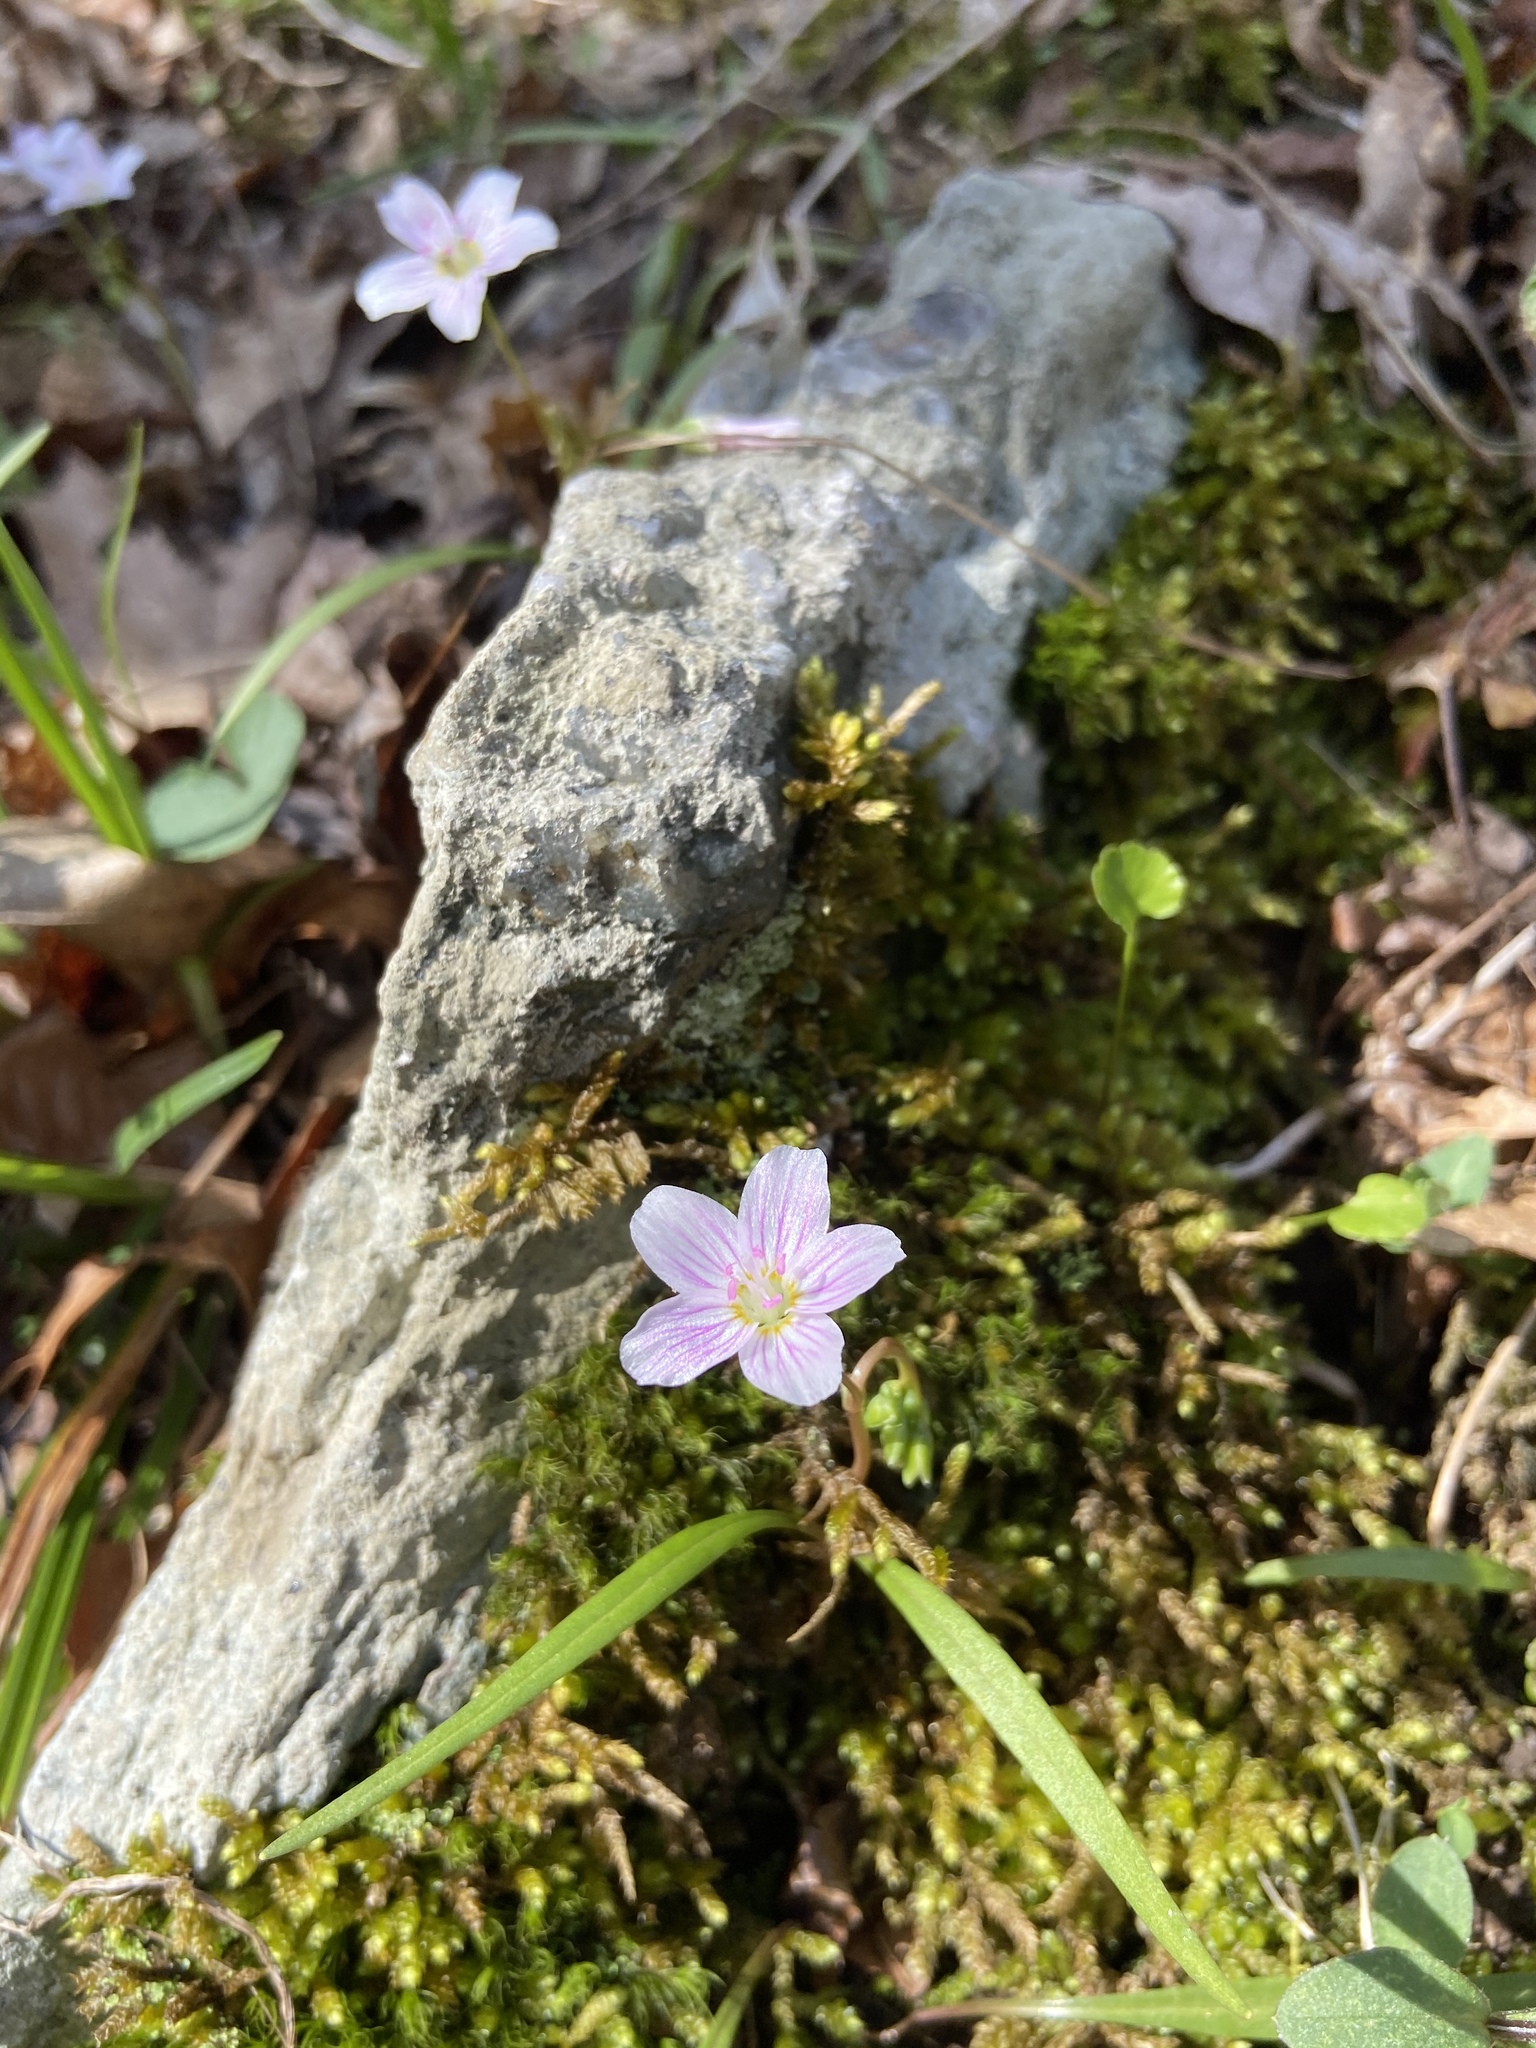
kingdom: Plantae
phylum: Tracheophyta
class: Magnoliopsida
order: Caryophyllales
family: Montiaceae
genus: Claytonia
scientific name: Claytonia virginica
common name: Virginia springbeauty
